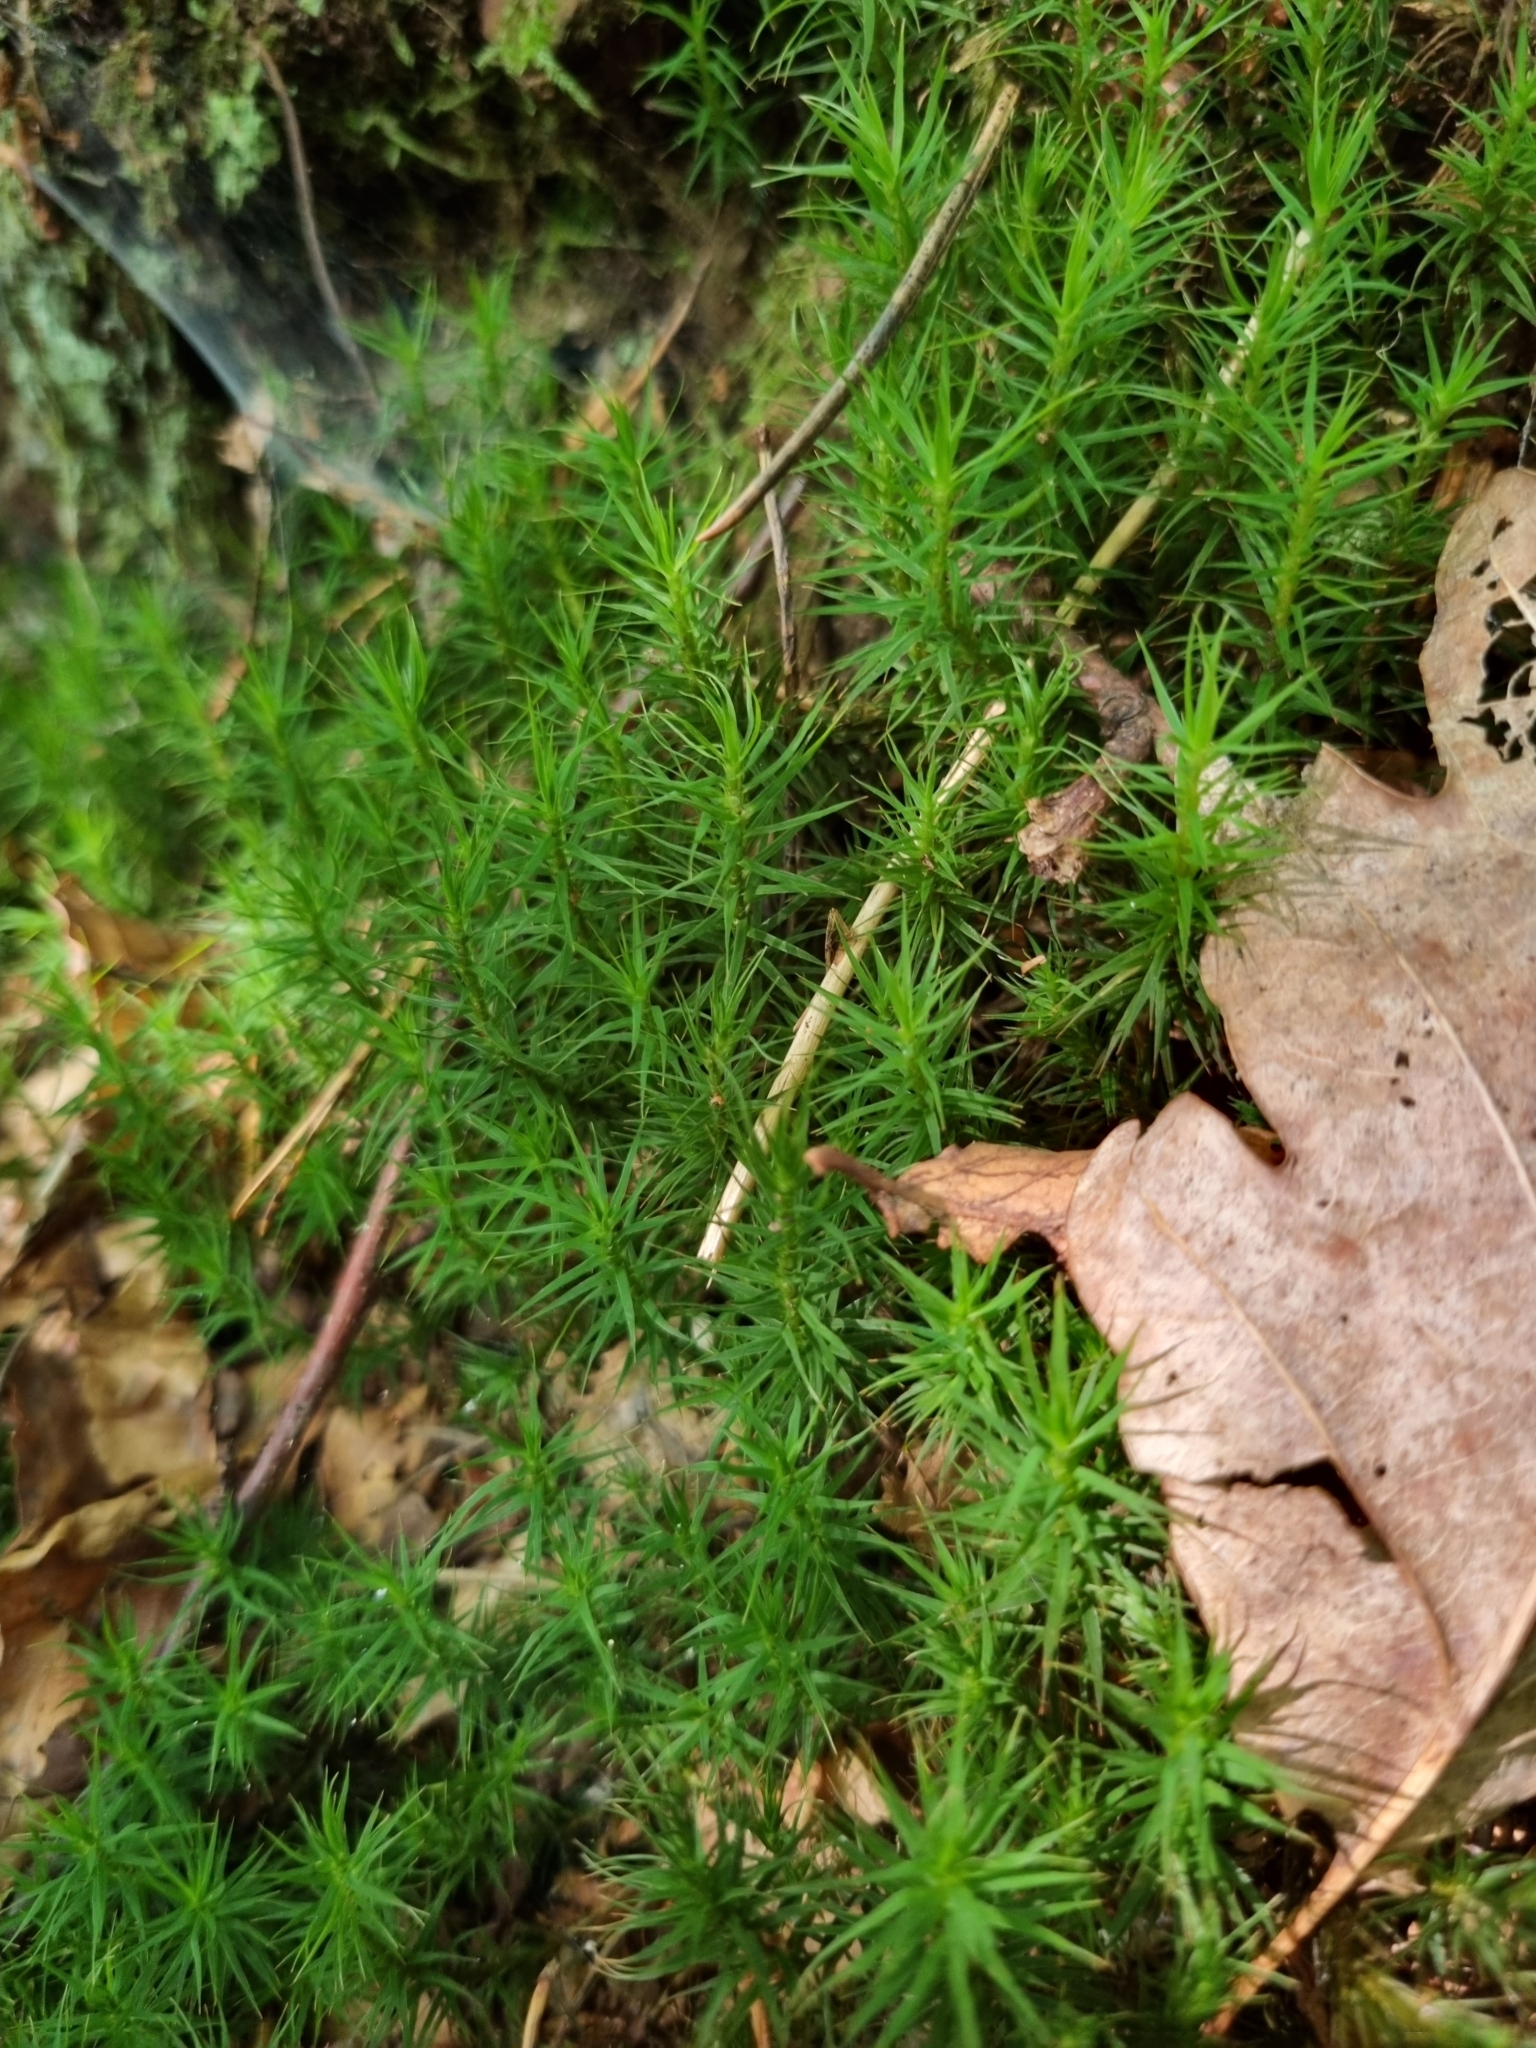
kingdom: Plantae
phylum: Bryophyta
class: Polytrichopsida
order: Polytrichales
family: Polytrichaceae
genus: Polytrichum
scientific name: Polytrichum formosum
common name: Bank haircap moss
